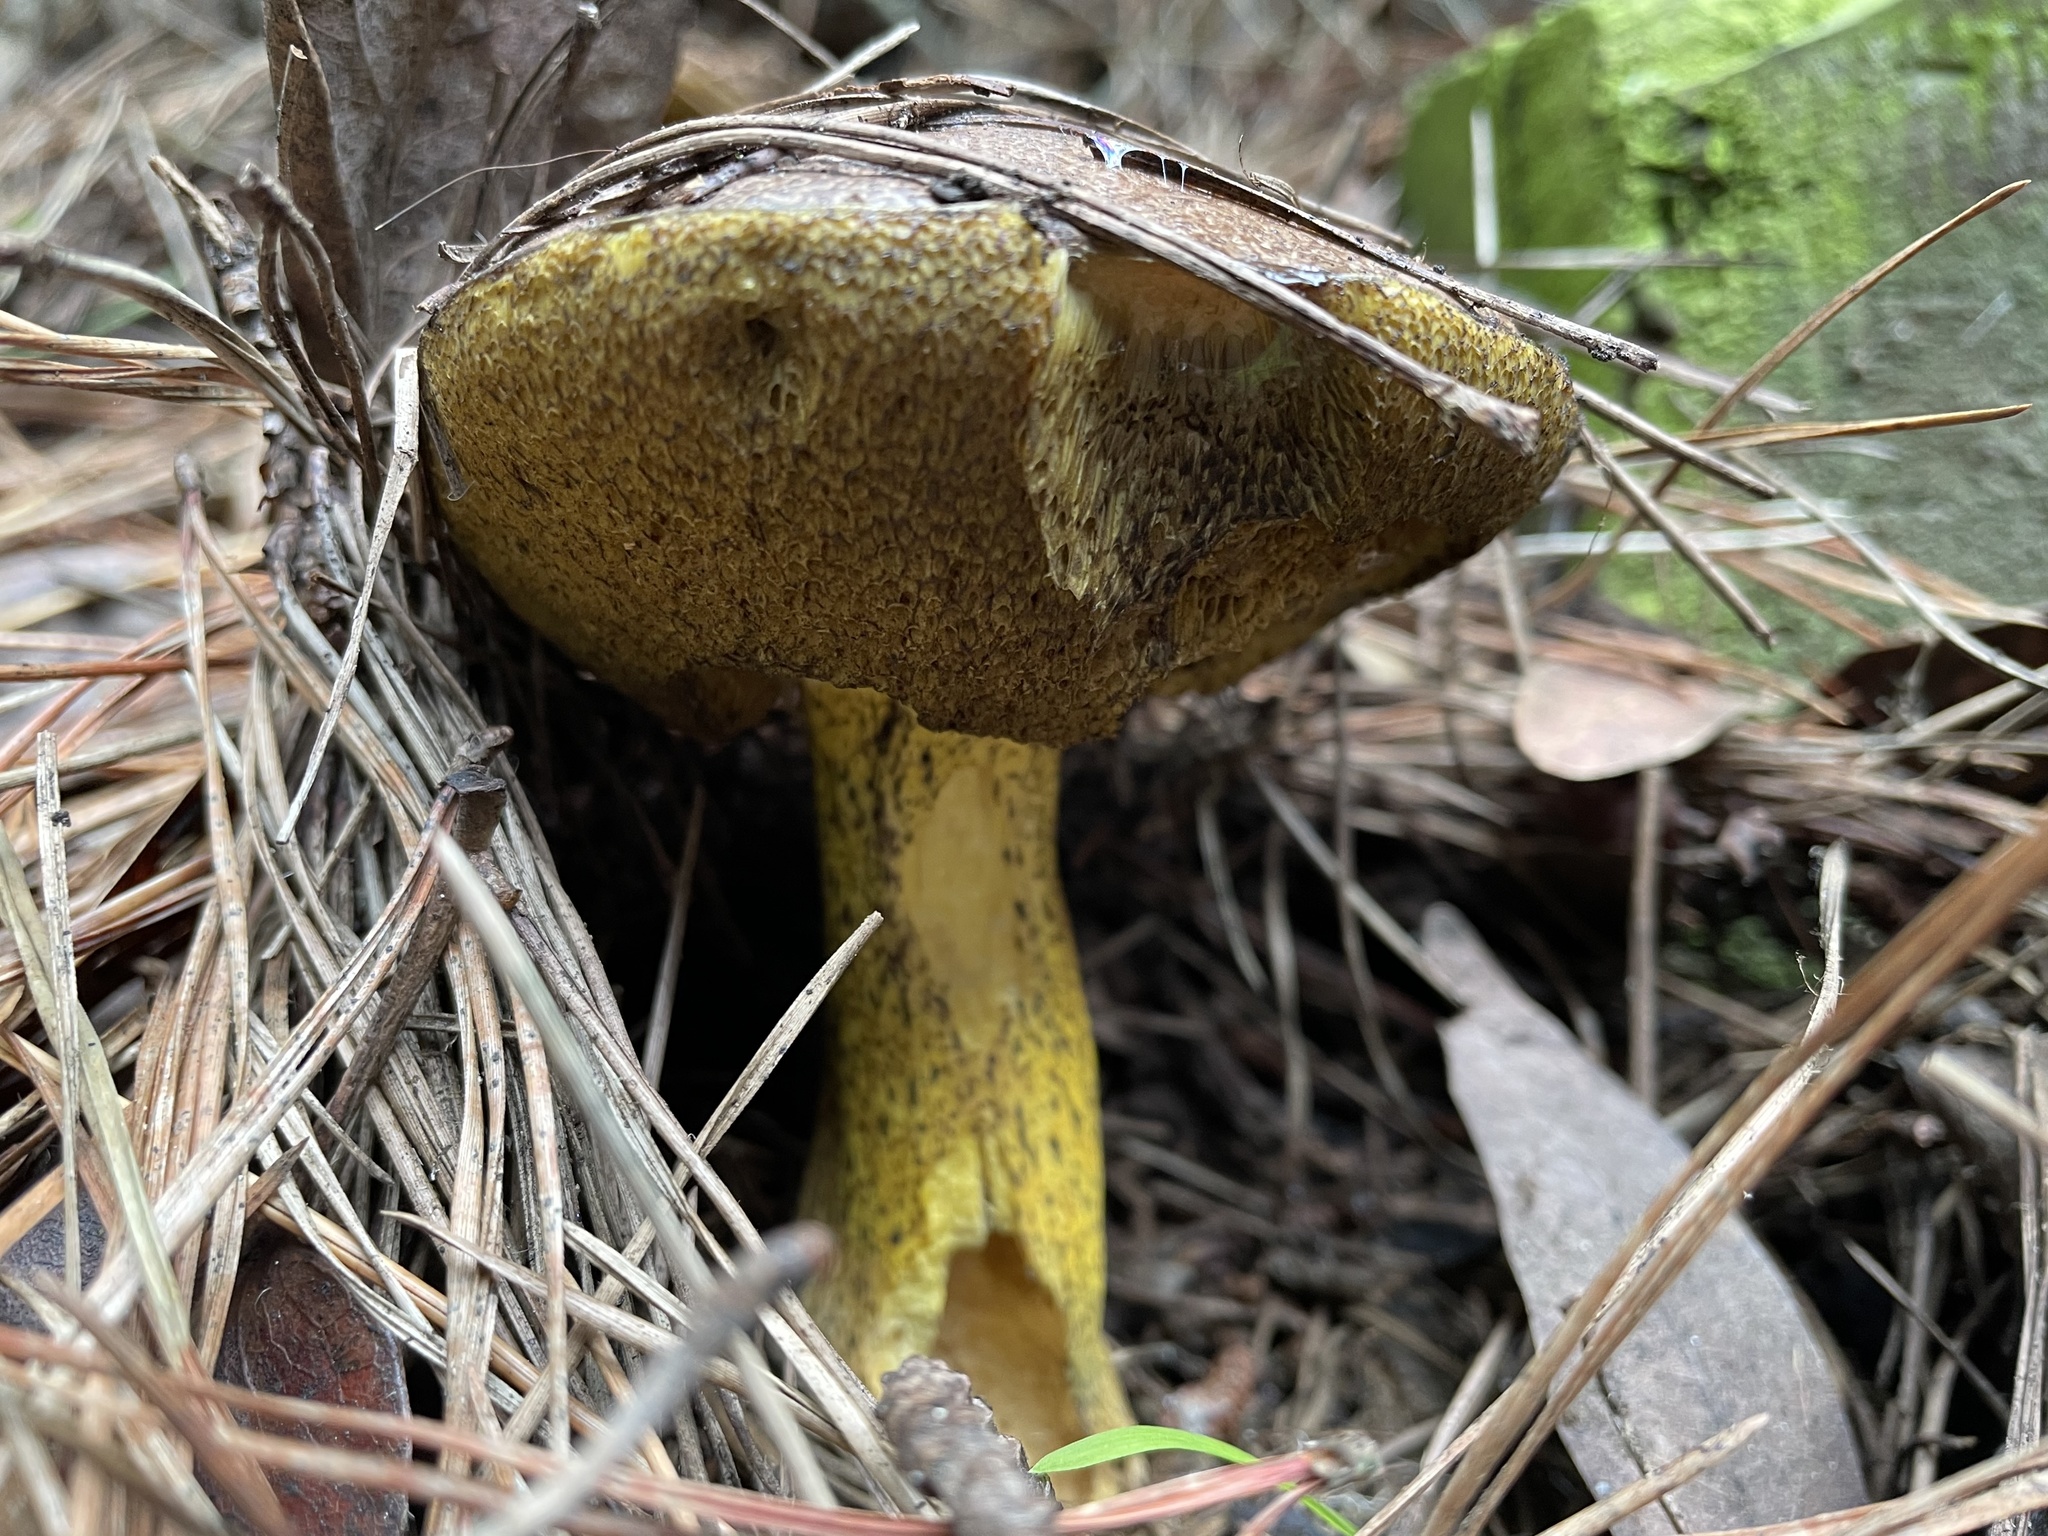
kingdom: Fungi
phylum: Basidiomycota
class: Agaricomycetes
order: Boletales
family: Suillaceae
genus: Suillus
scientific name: Suillus fuscotomentosus
